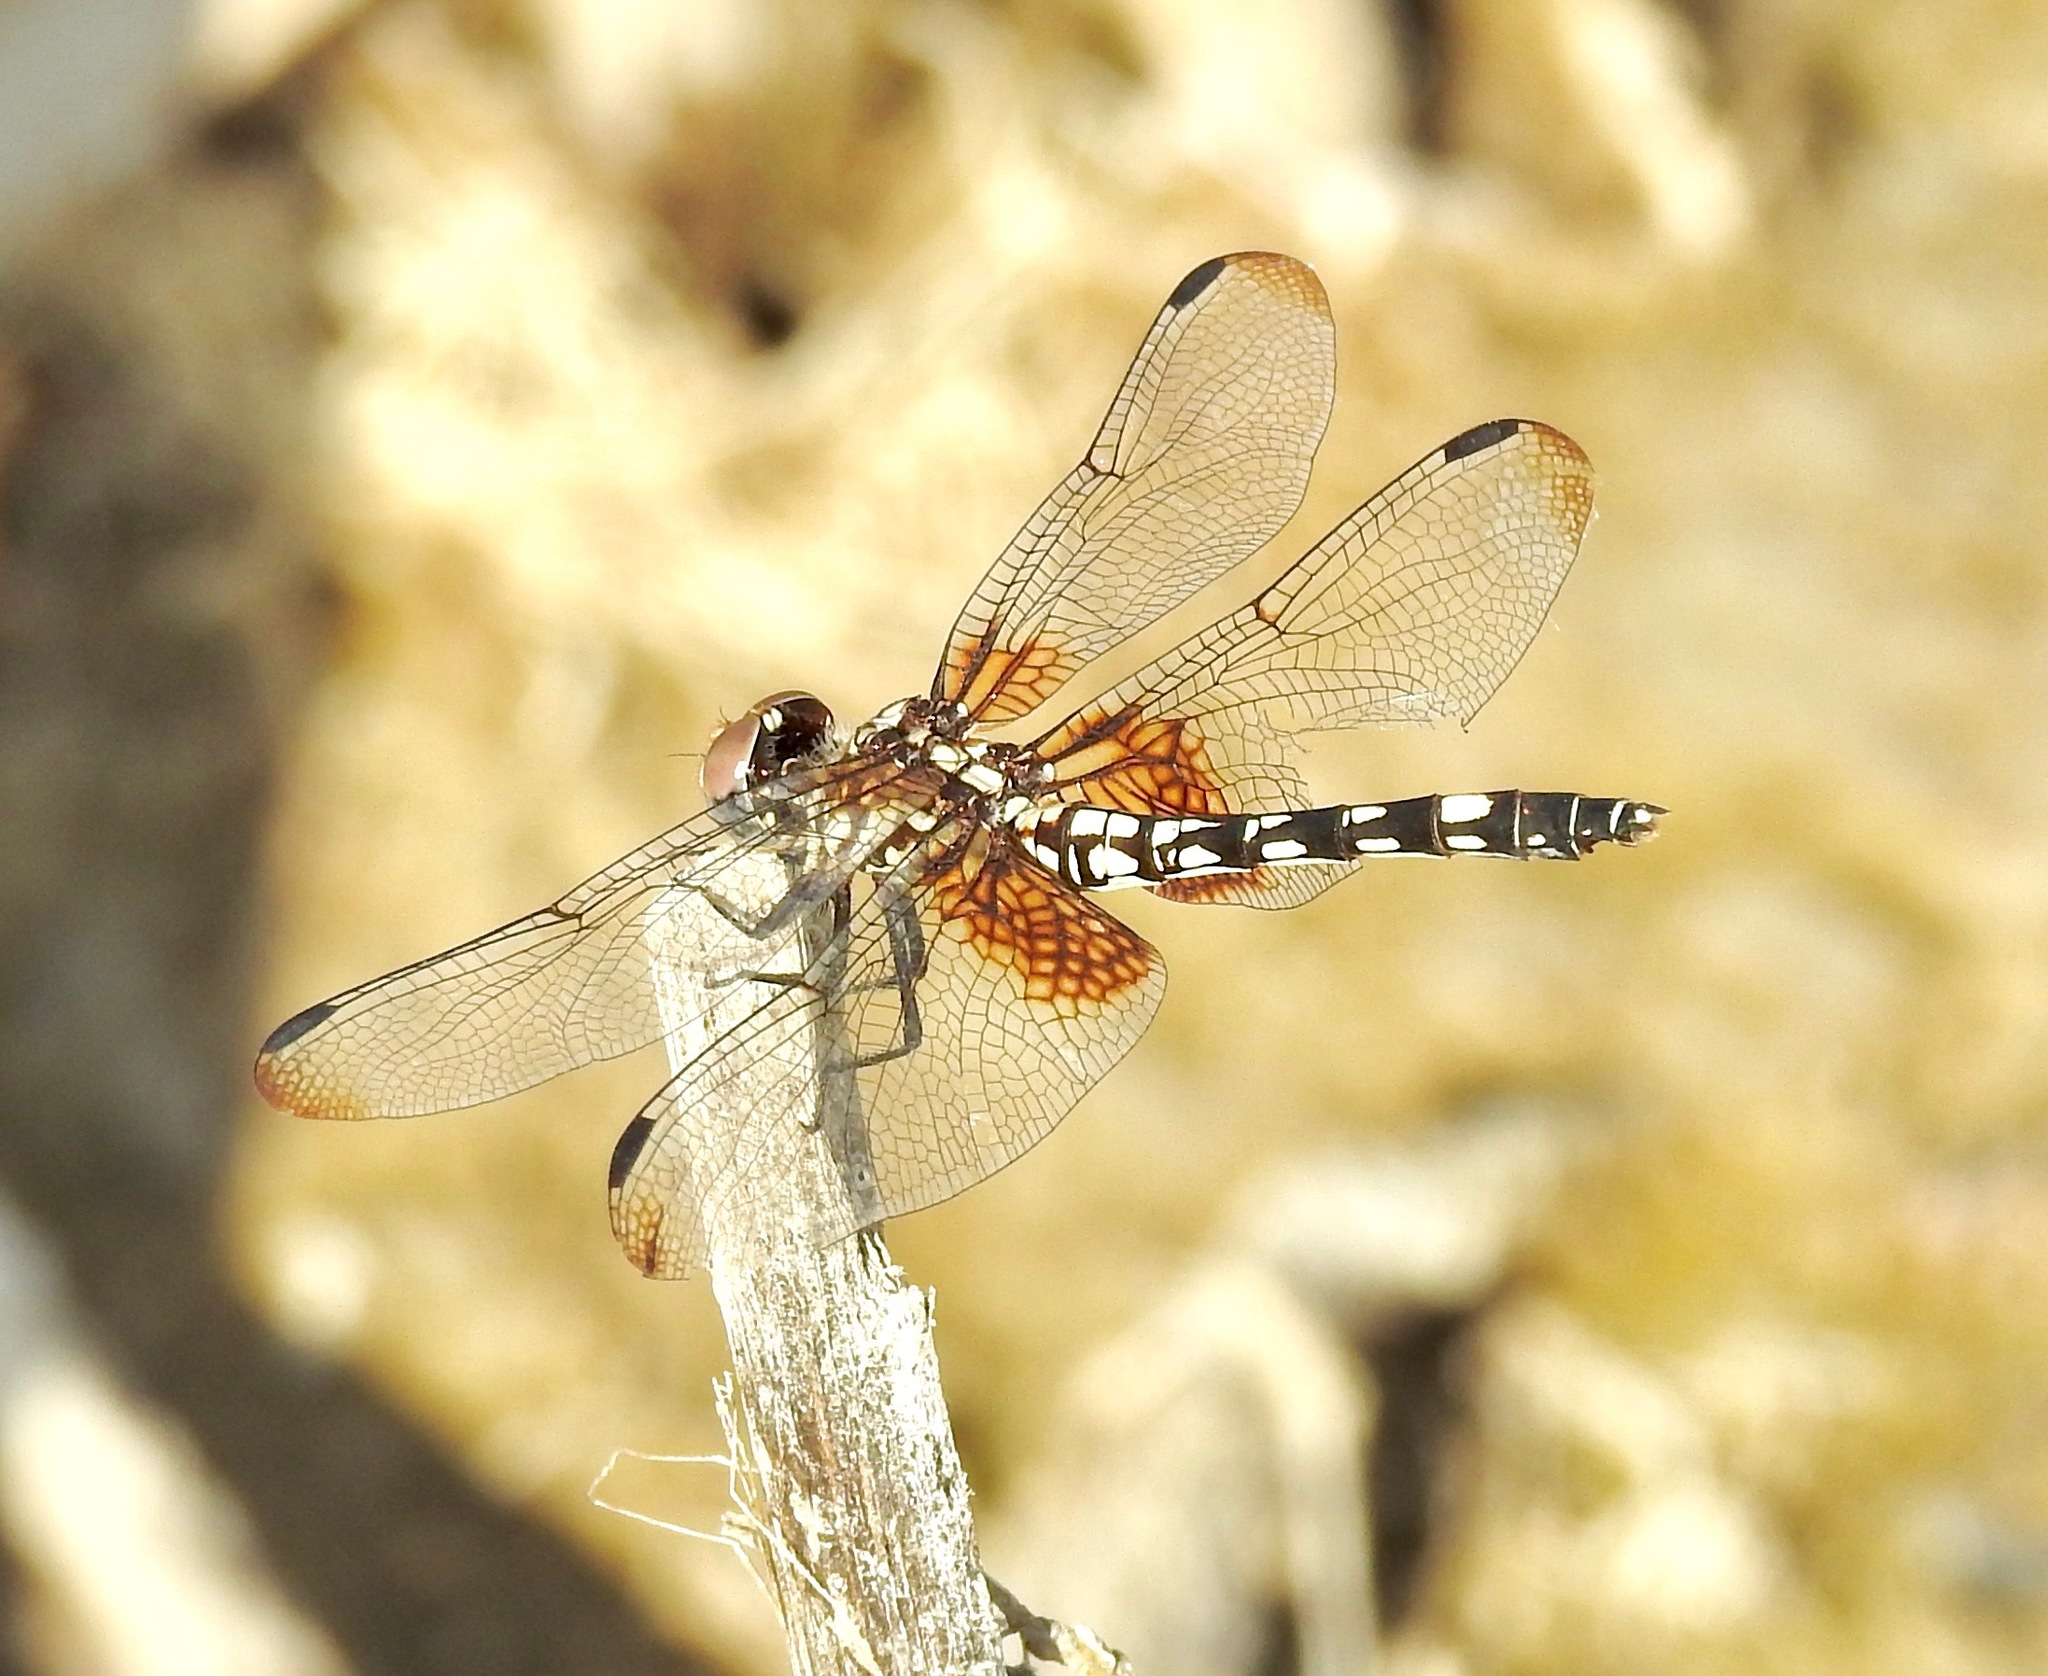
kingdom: Animalia
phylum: Arthropoda
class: Insecta
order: Odonata
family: Libellulidae
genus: Dythemis
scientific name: Dythemis fugax
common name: Checkered setwing
